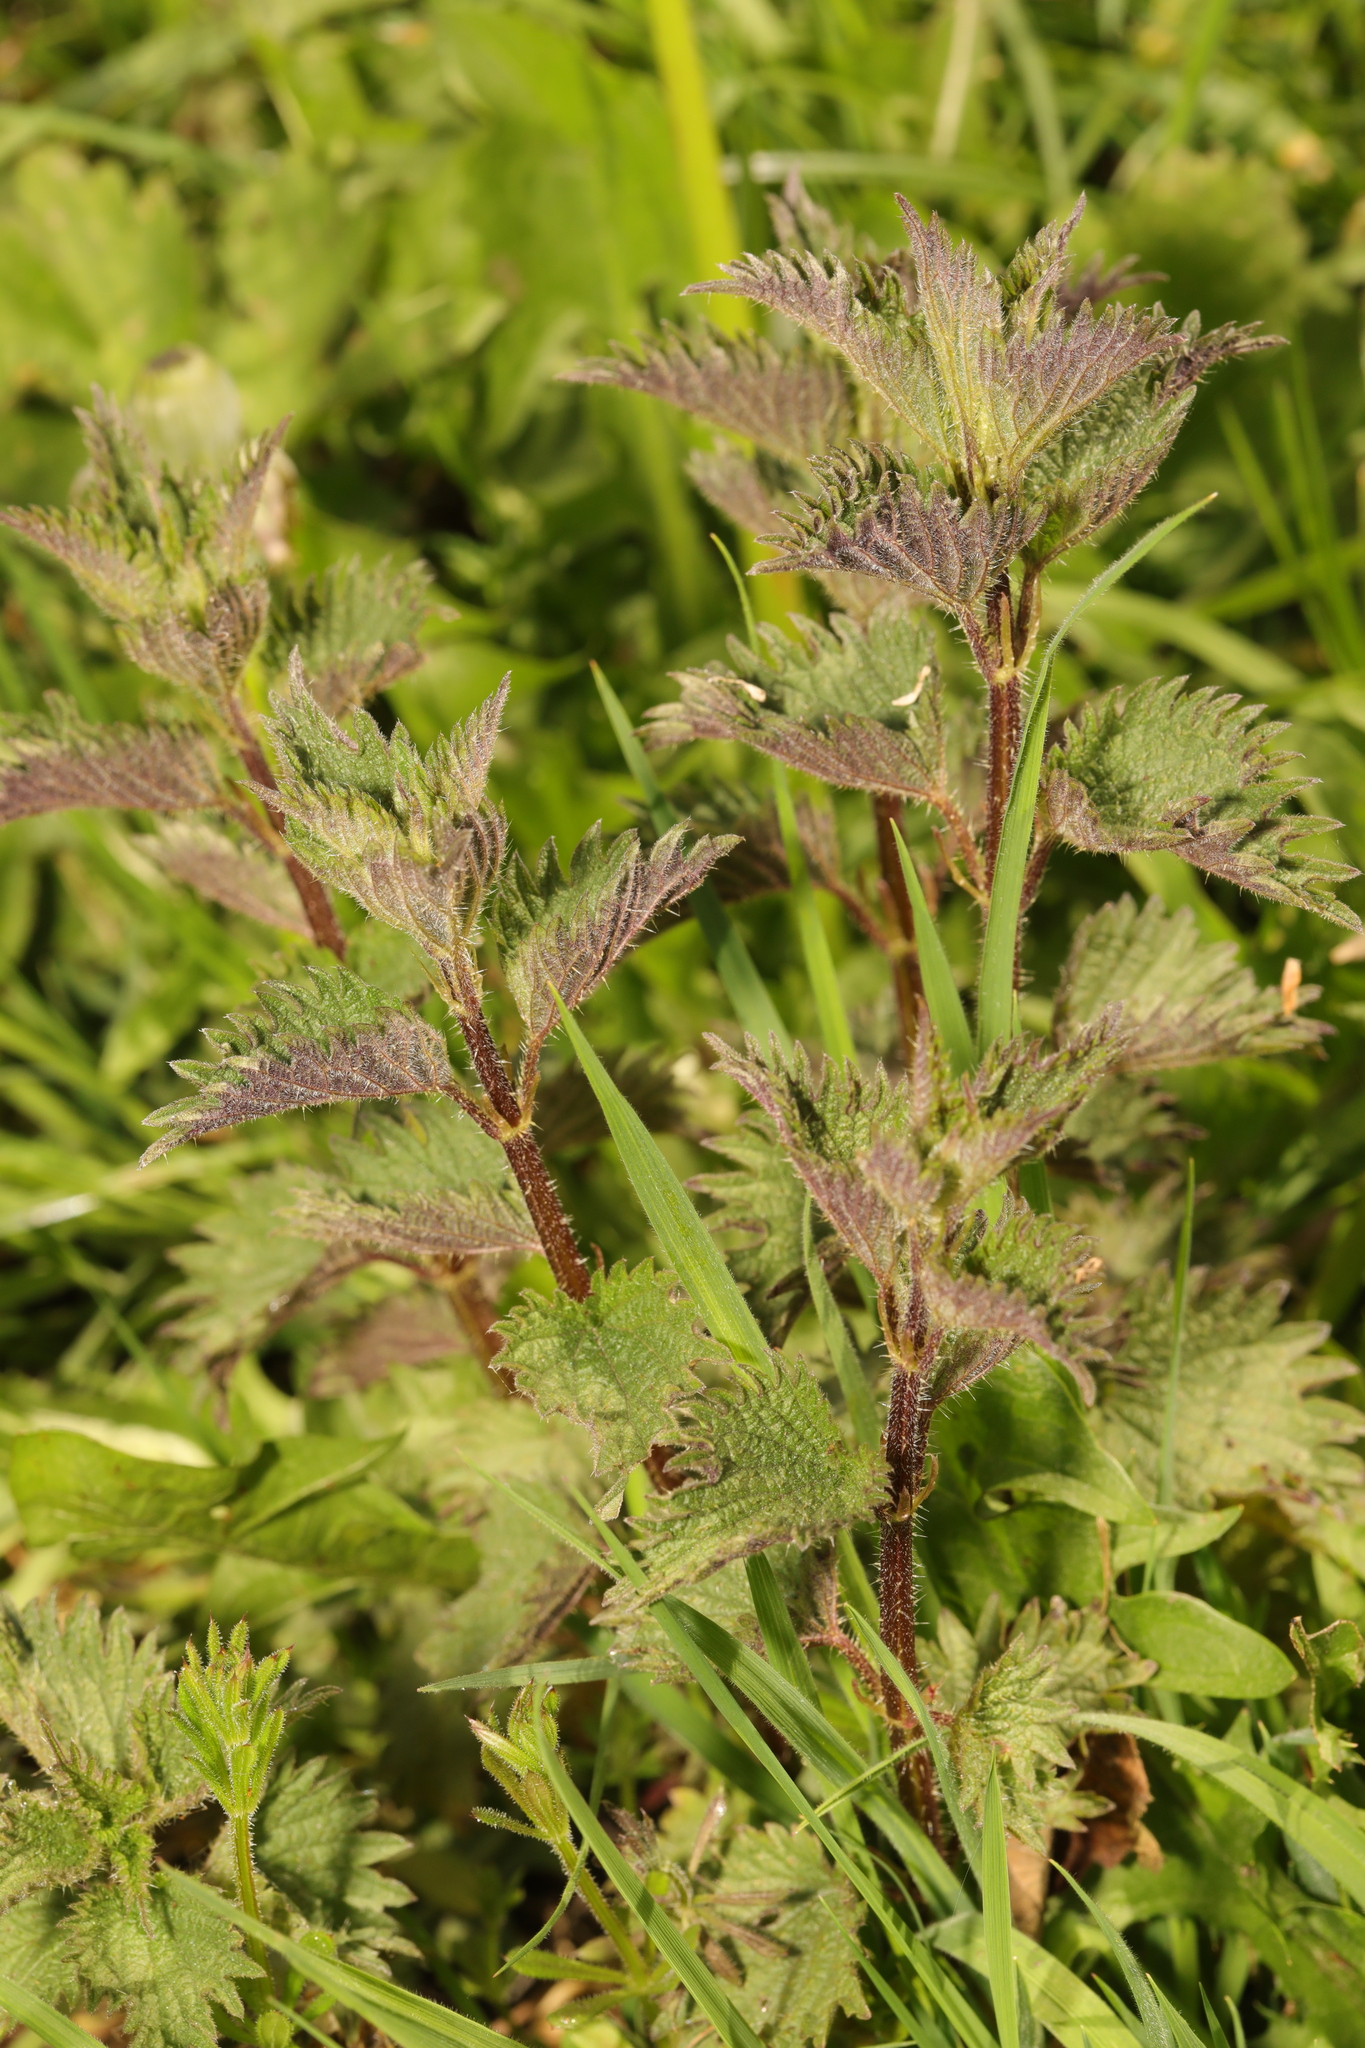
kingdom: Plantae
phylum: Tracheophyta
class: Magnoliopsida
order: Rosales
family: Urticaceae
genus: Urtica
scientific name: Urtica dioica
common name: Common nettle
